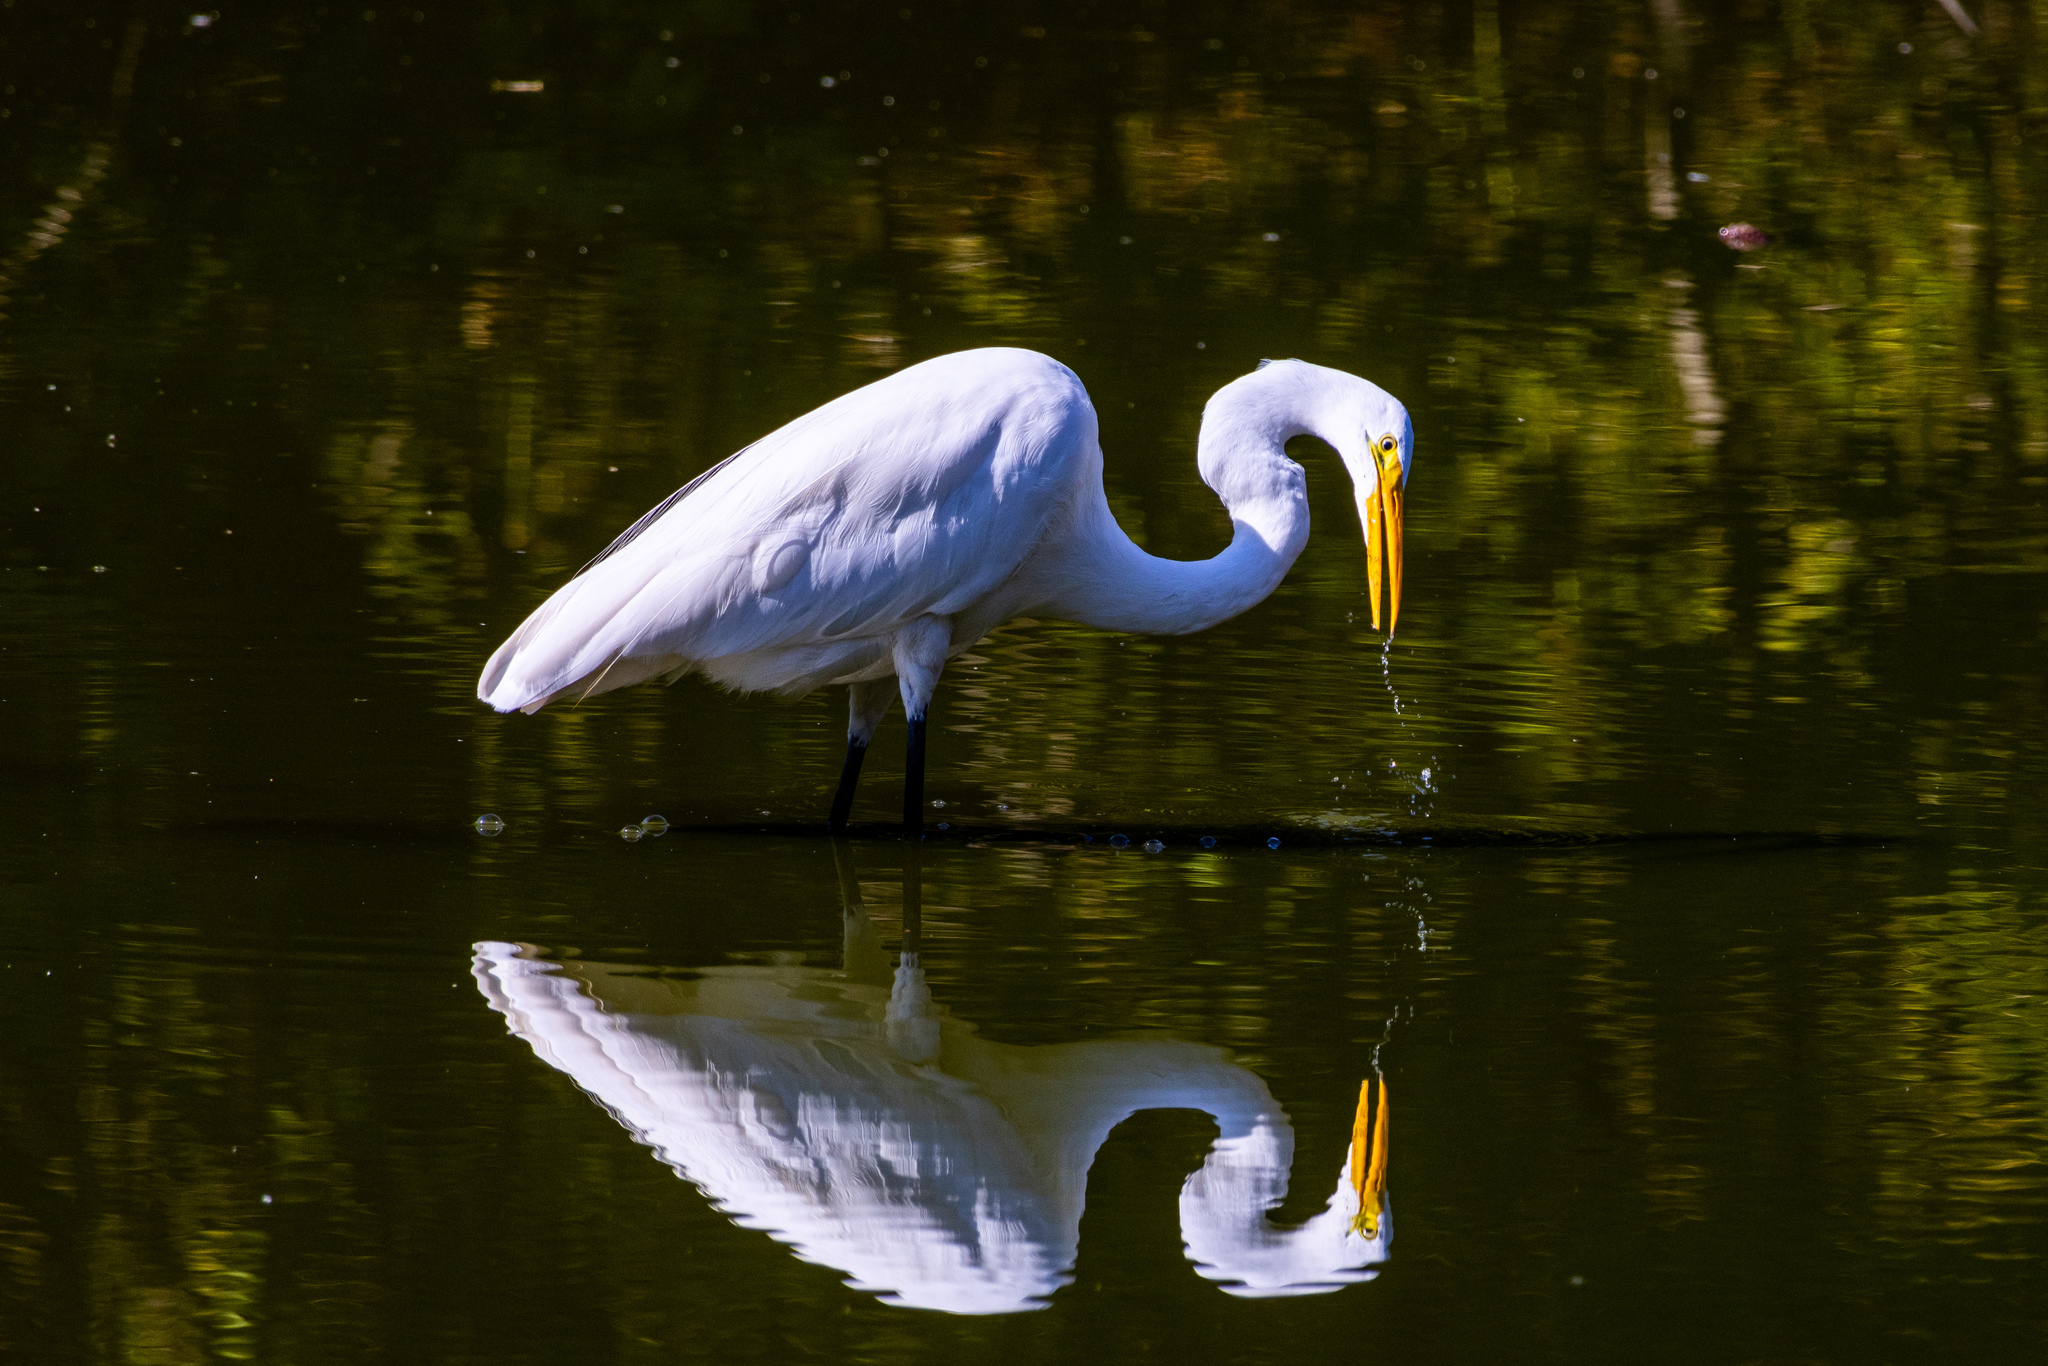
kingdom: Animalia
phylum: Chordata
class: Aves
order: Pelecaniformes
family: Ardeidae
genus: Ardea
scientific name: Ardea alba
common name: Great egret
